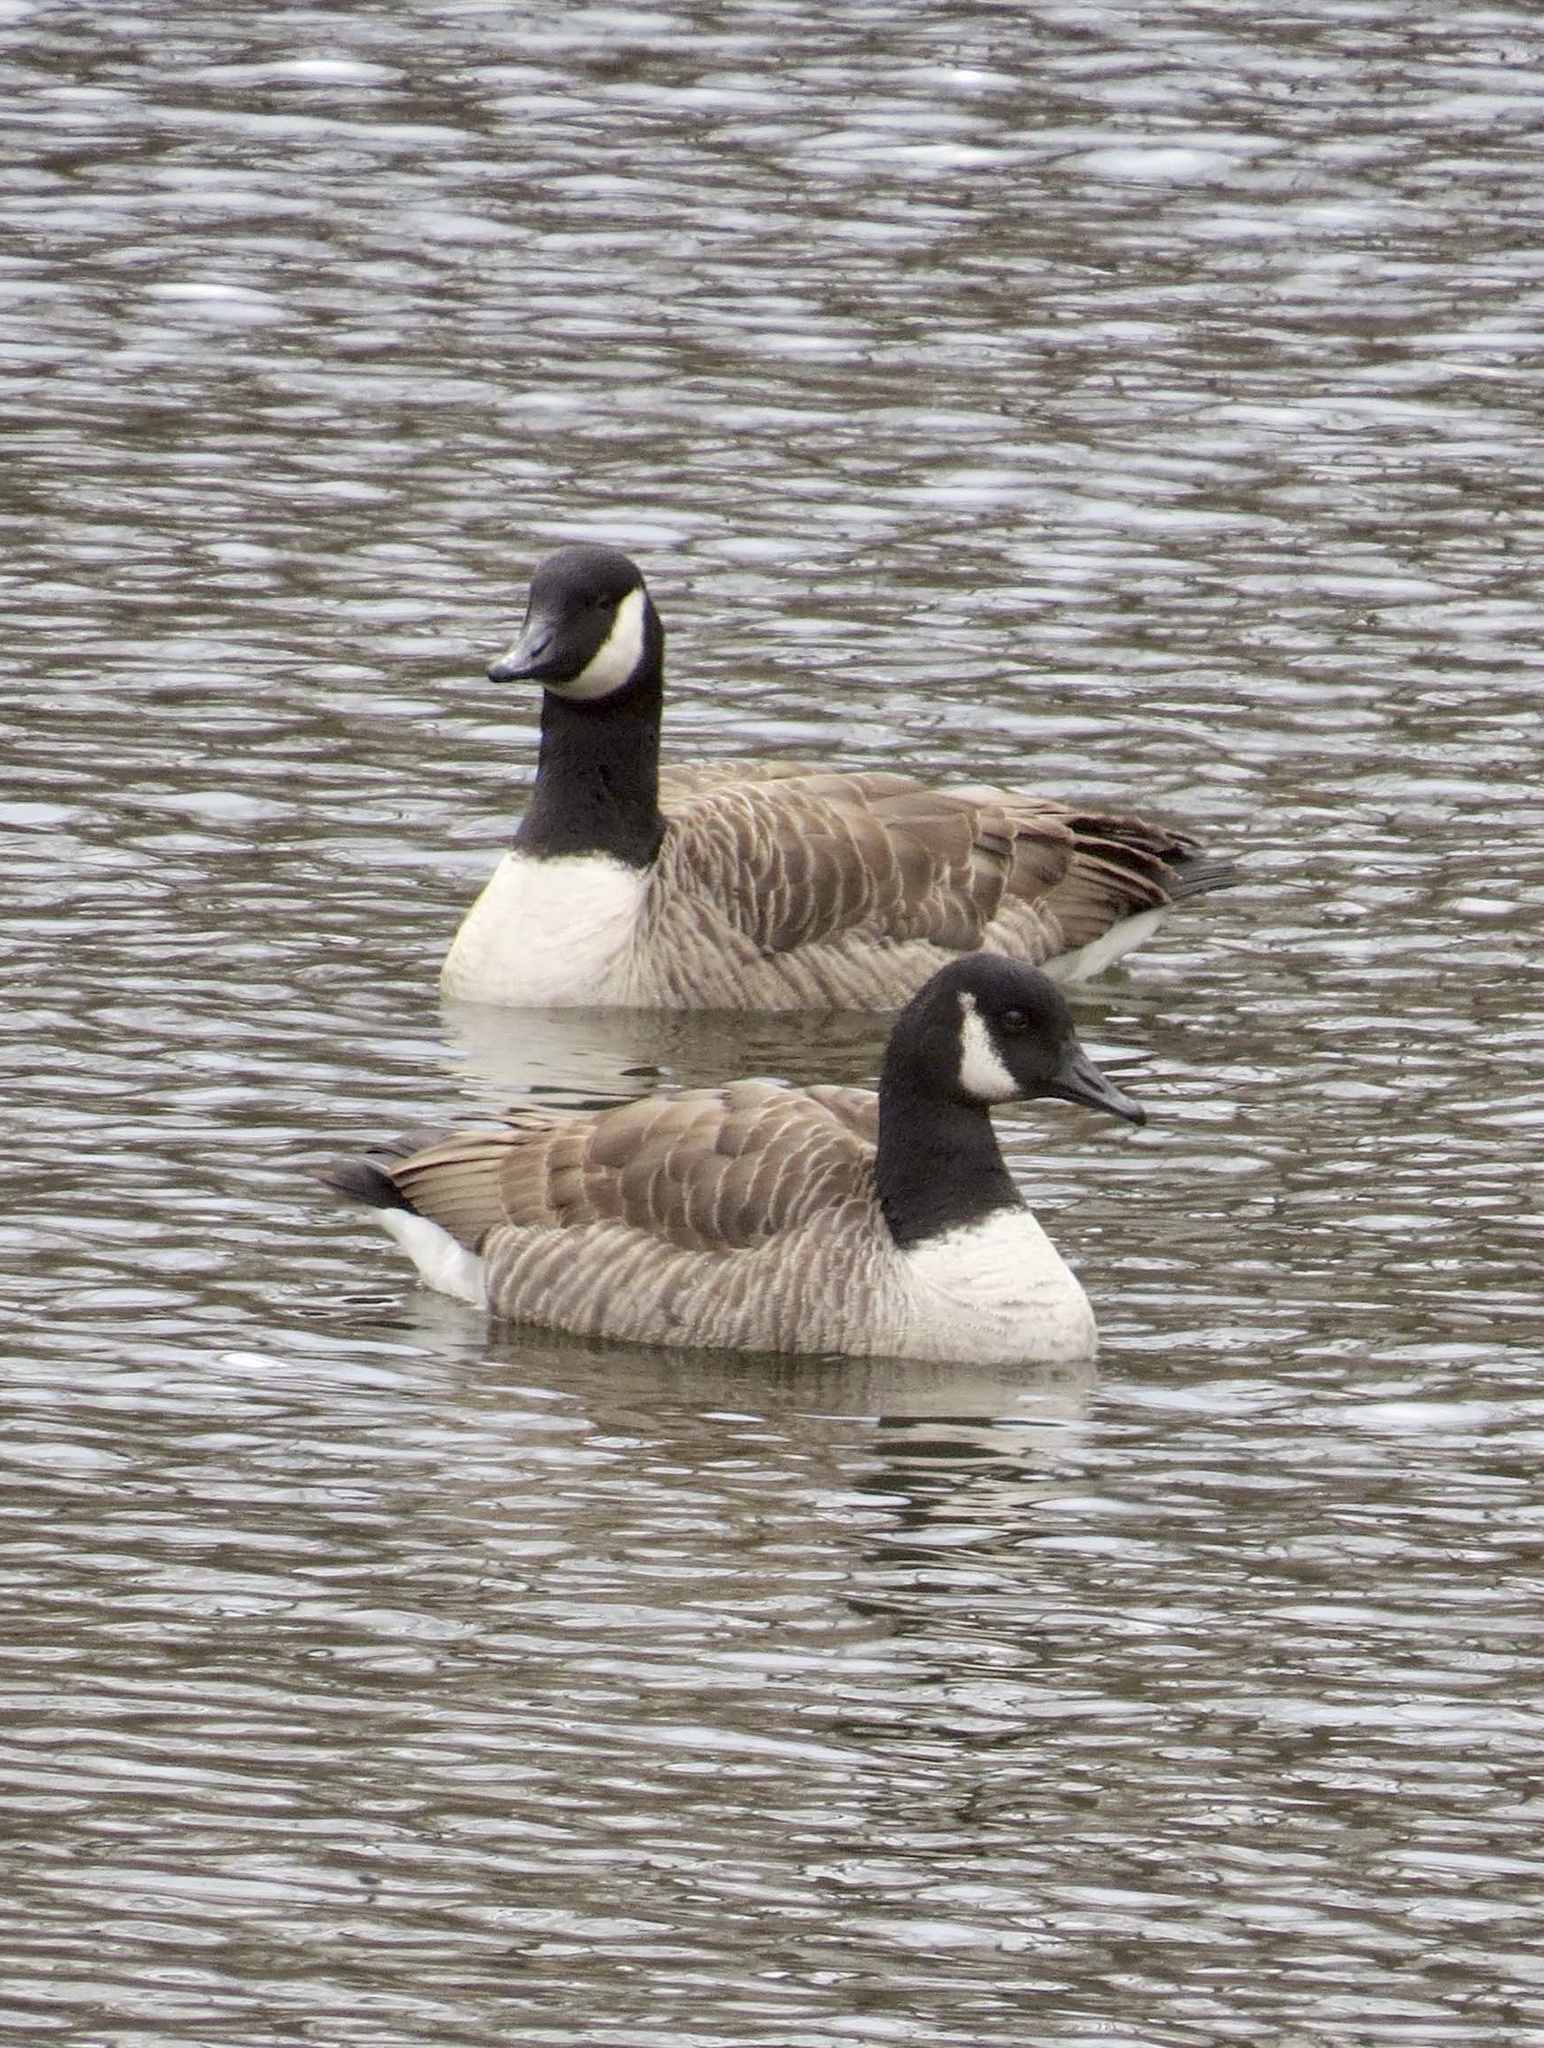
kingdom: Animalia
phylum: Chordata
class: Aves
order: Anseriformes
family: Anatidae
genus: Branta
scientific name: Branta canadensis
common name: Canada goose
